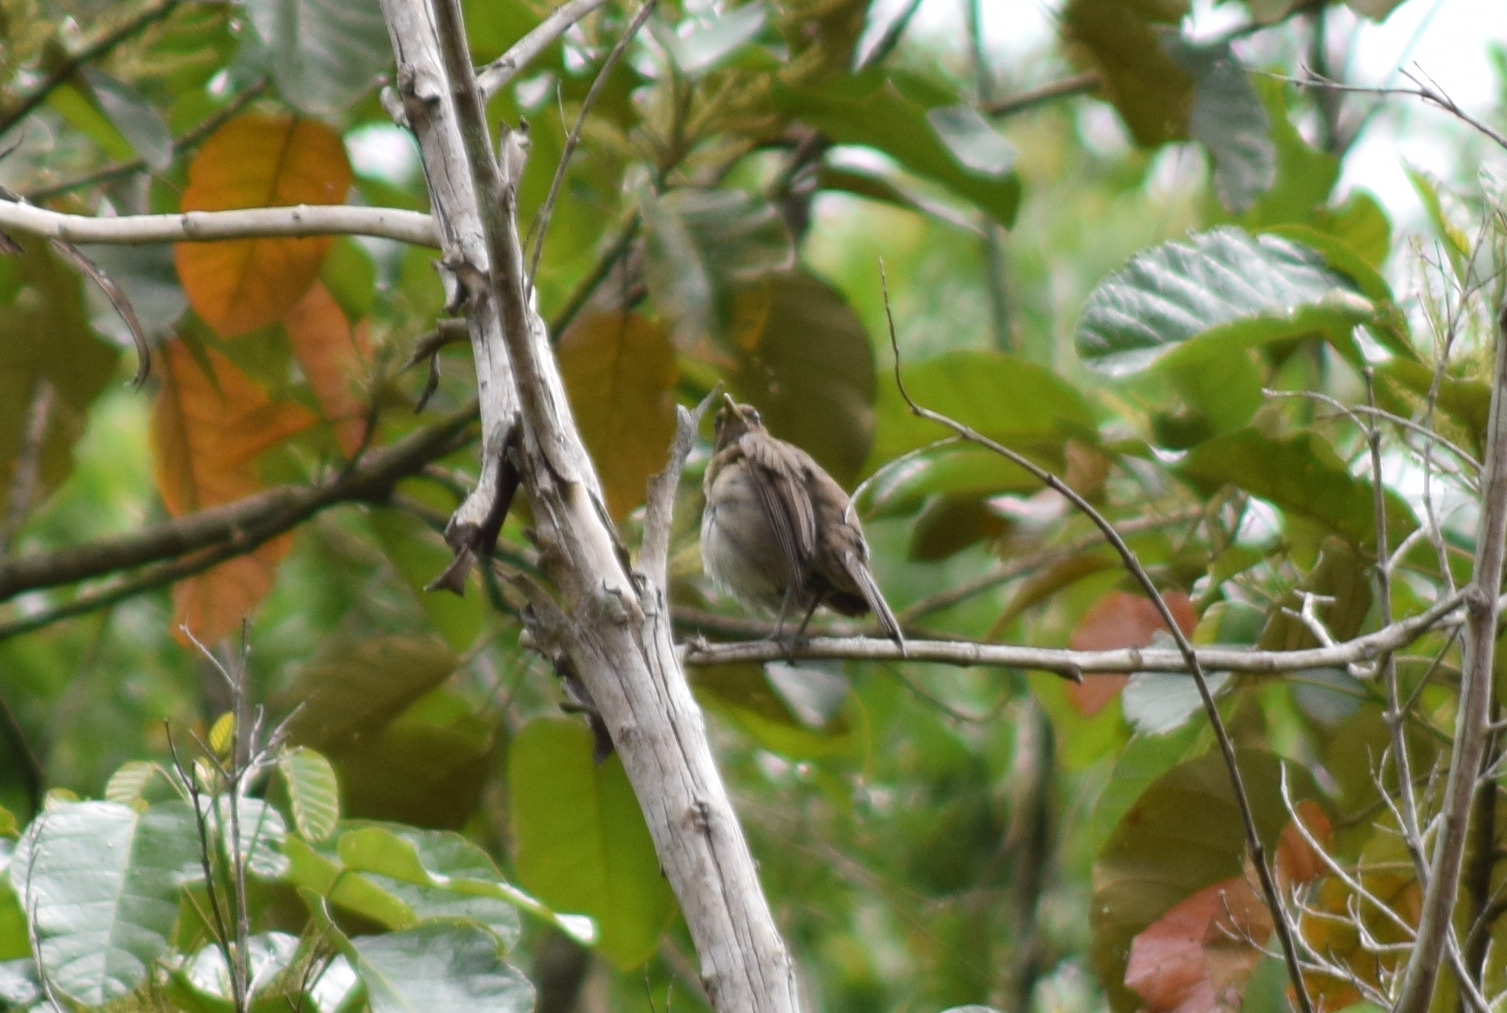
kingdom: Animalia
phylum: Chordata
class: Aves
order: Passeriformes
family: Turdidae
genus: Turdus
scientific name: Turdus amaurochalinus
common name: Creamy-bellied thrush
